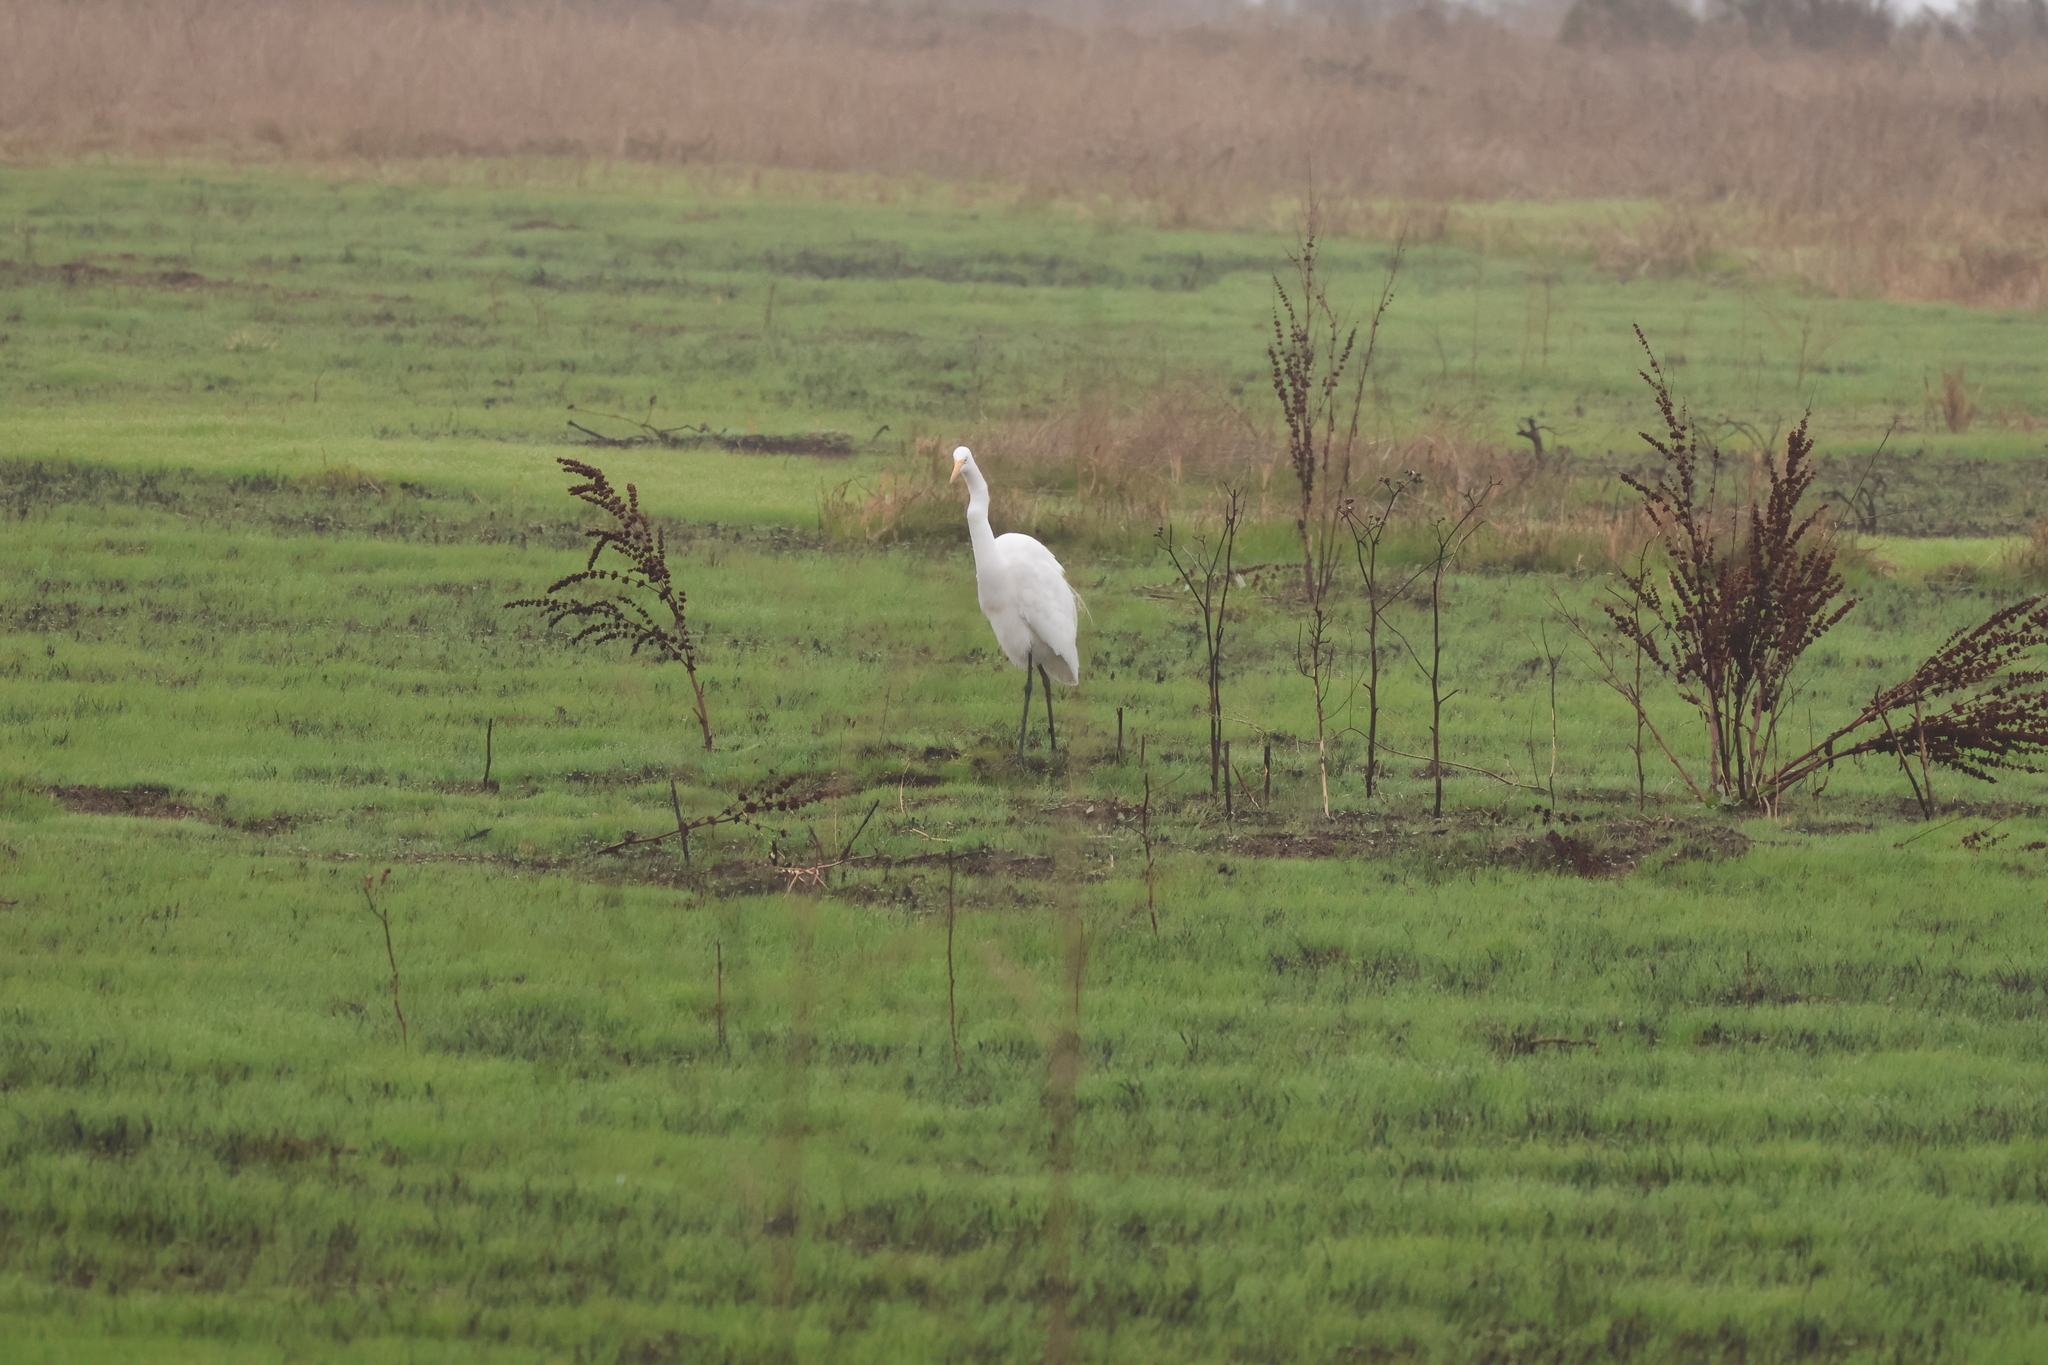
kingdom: Animalia
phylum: Chordata
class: Aves
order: Pelecaniformes
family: Ardeidae
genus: Ardea
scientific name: Ardea alba
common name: Great egret
